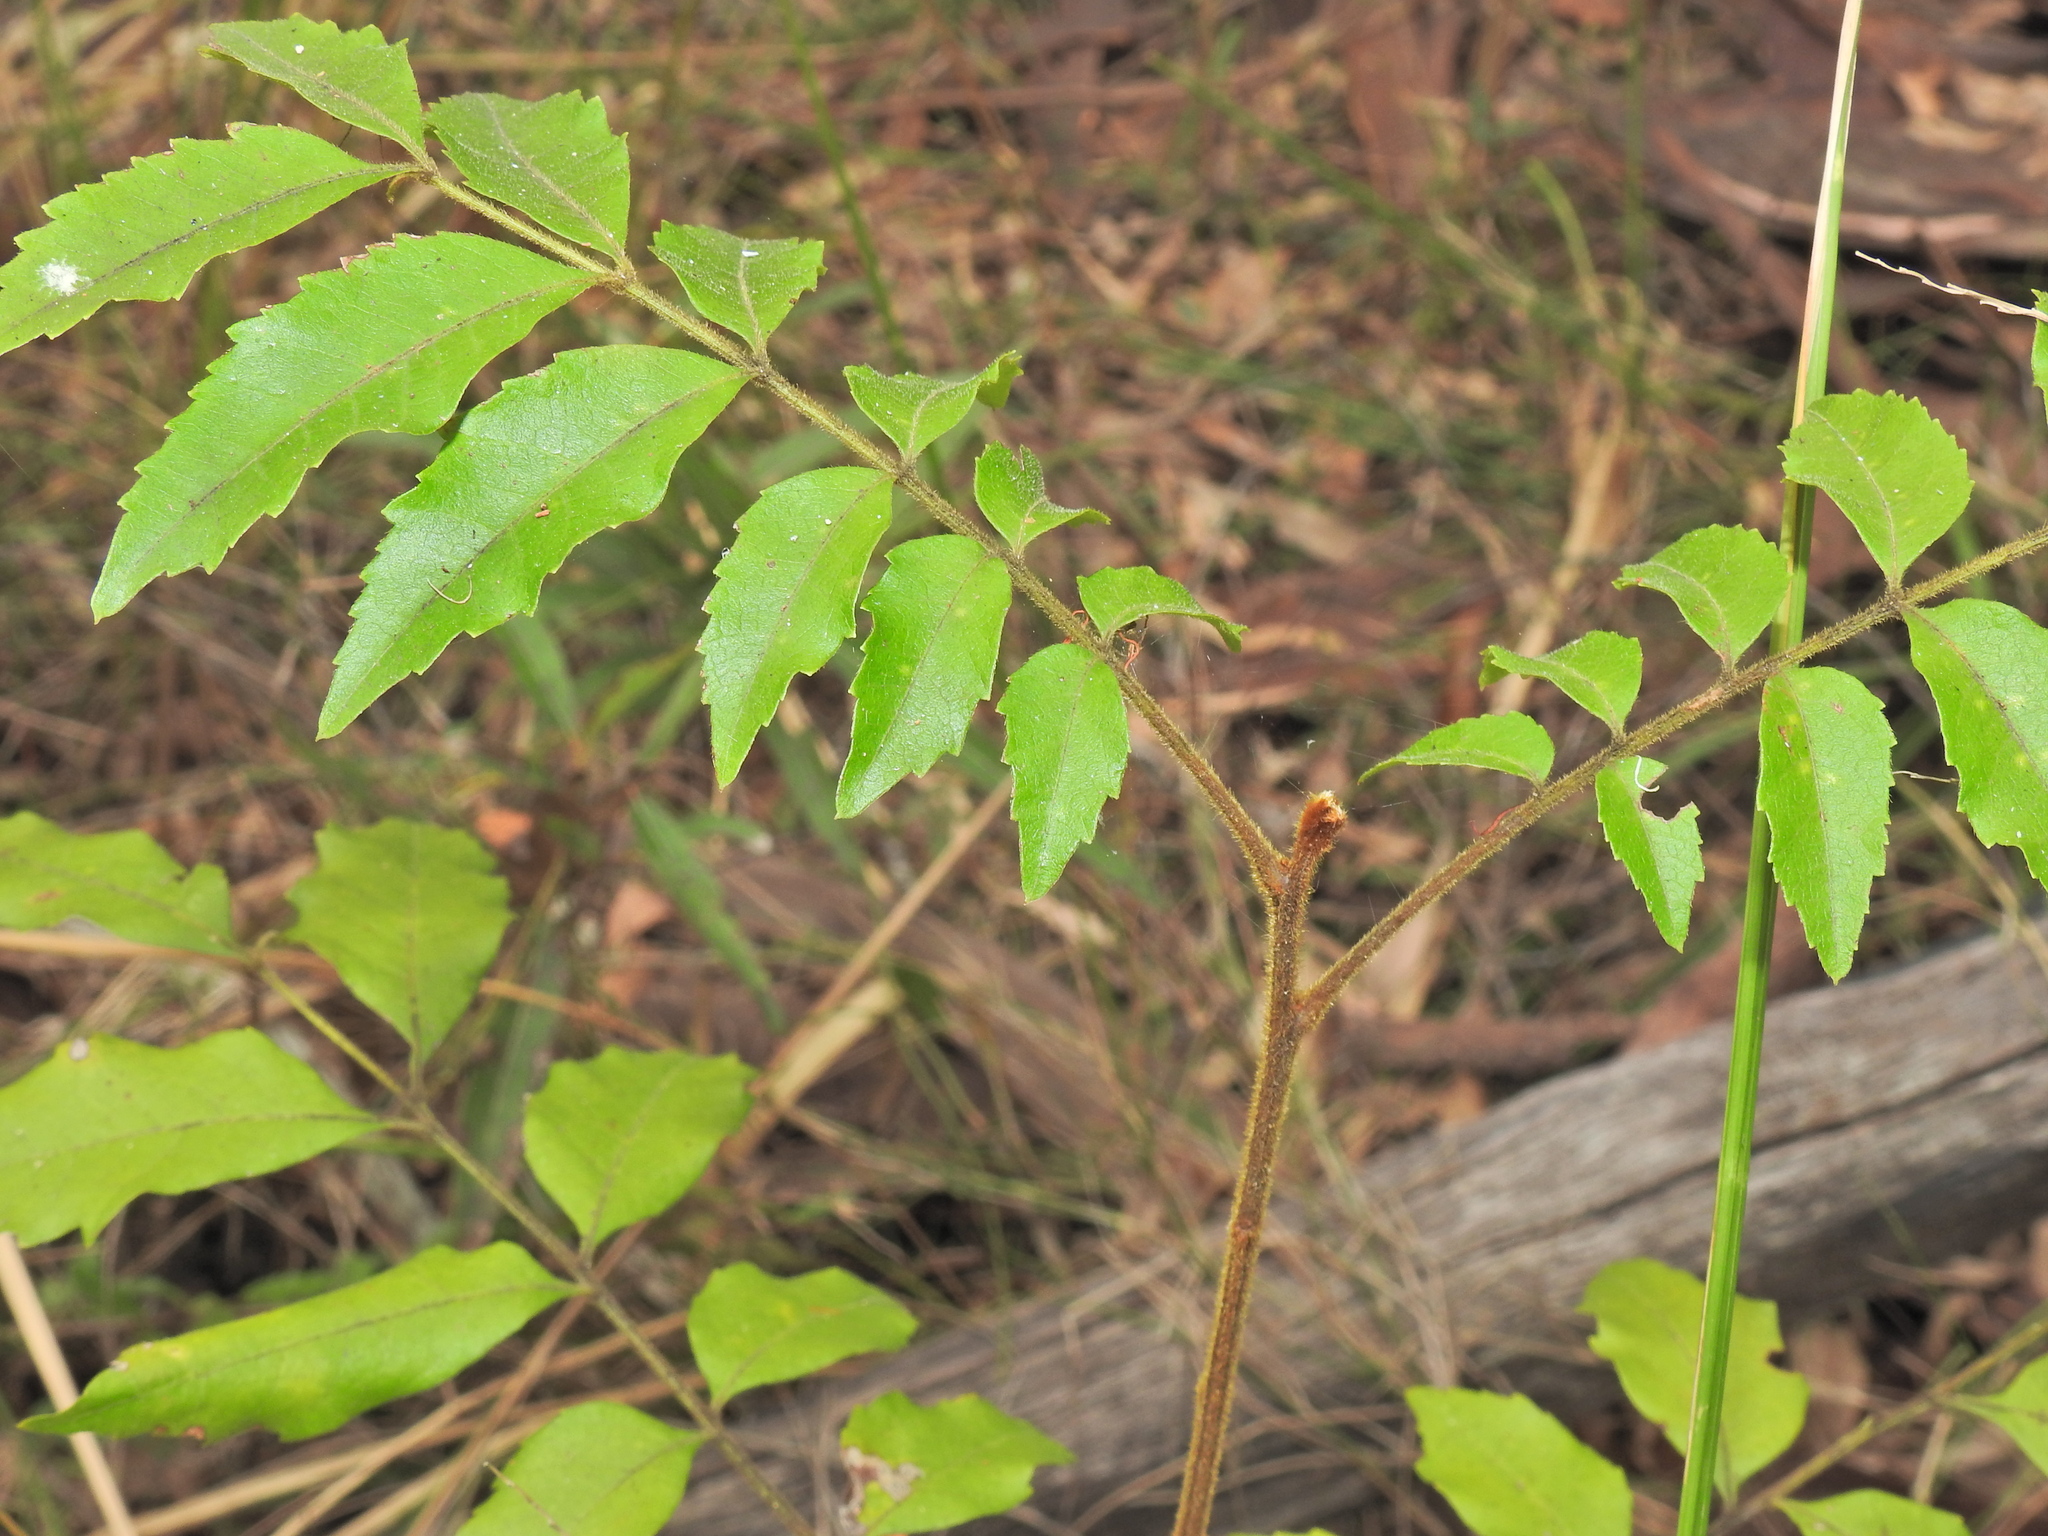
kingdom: Plantae
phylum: Tracheophyta
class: Magnoliopsida
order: Sapindales
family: Sapindaceae
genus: Jagera
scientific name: Jagera pseudorhus
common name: Fern-leaf-tamarind
